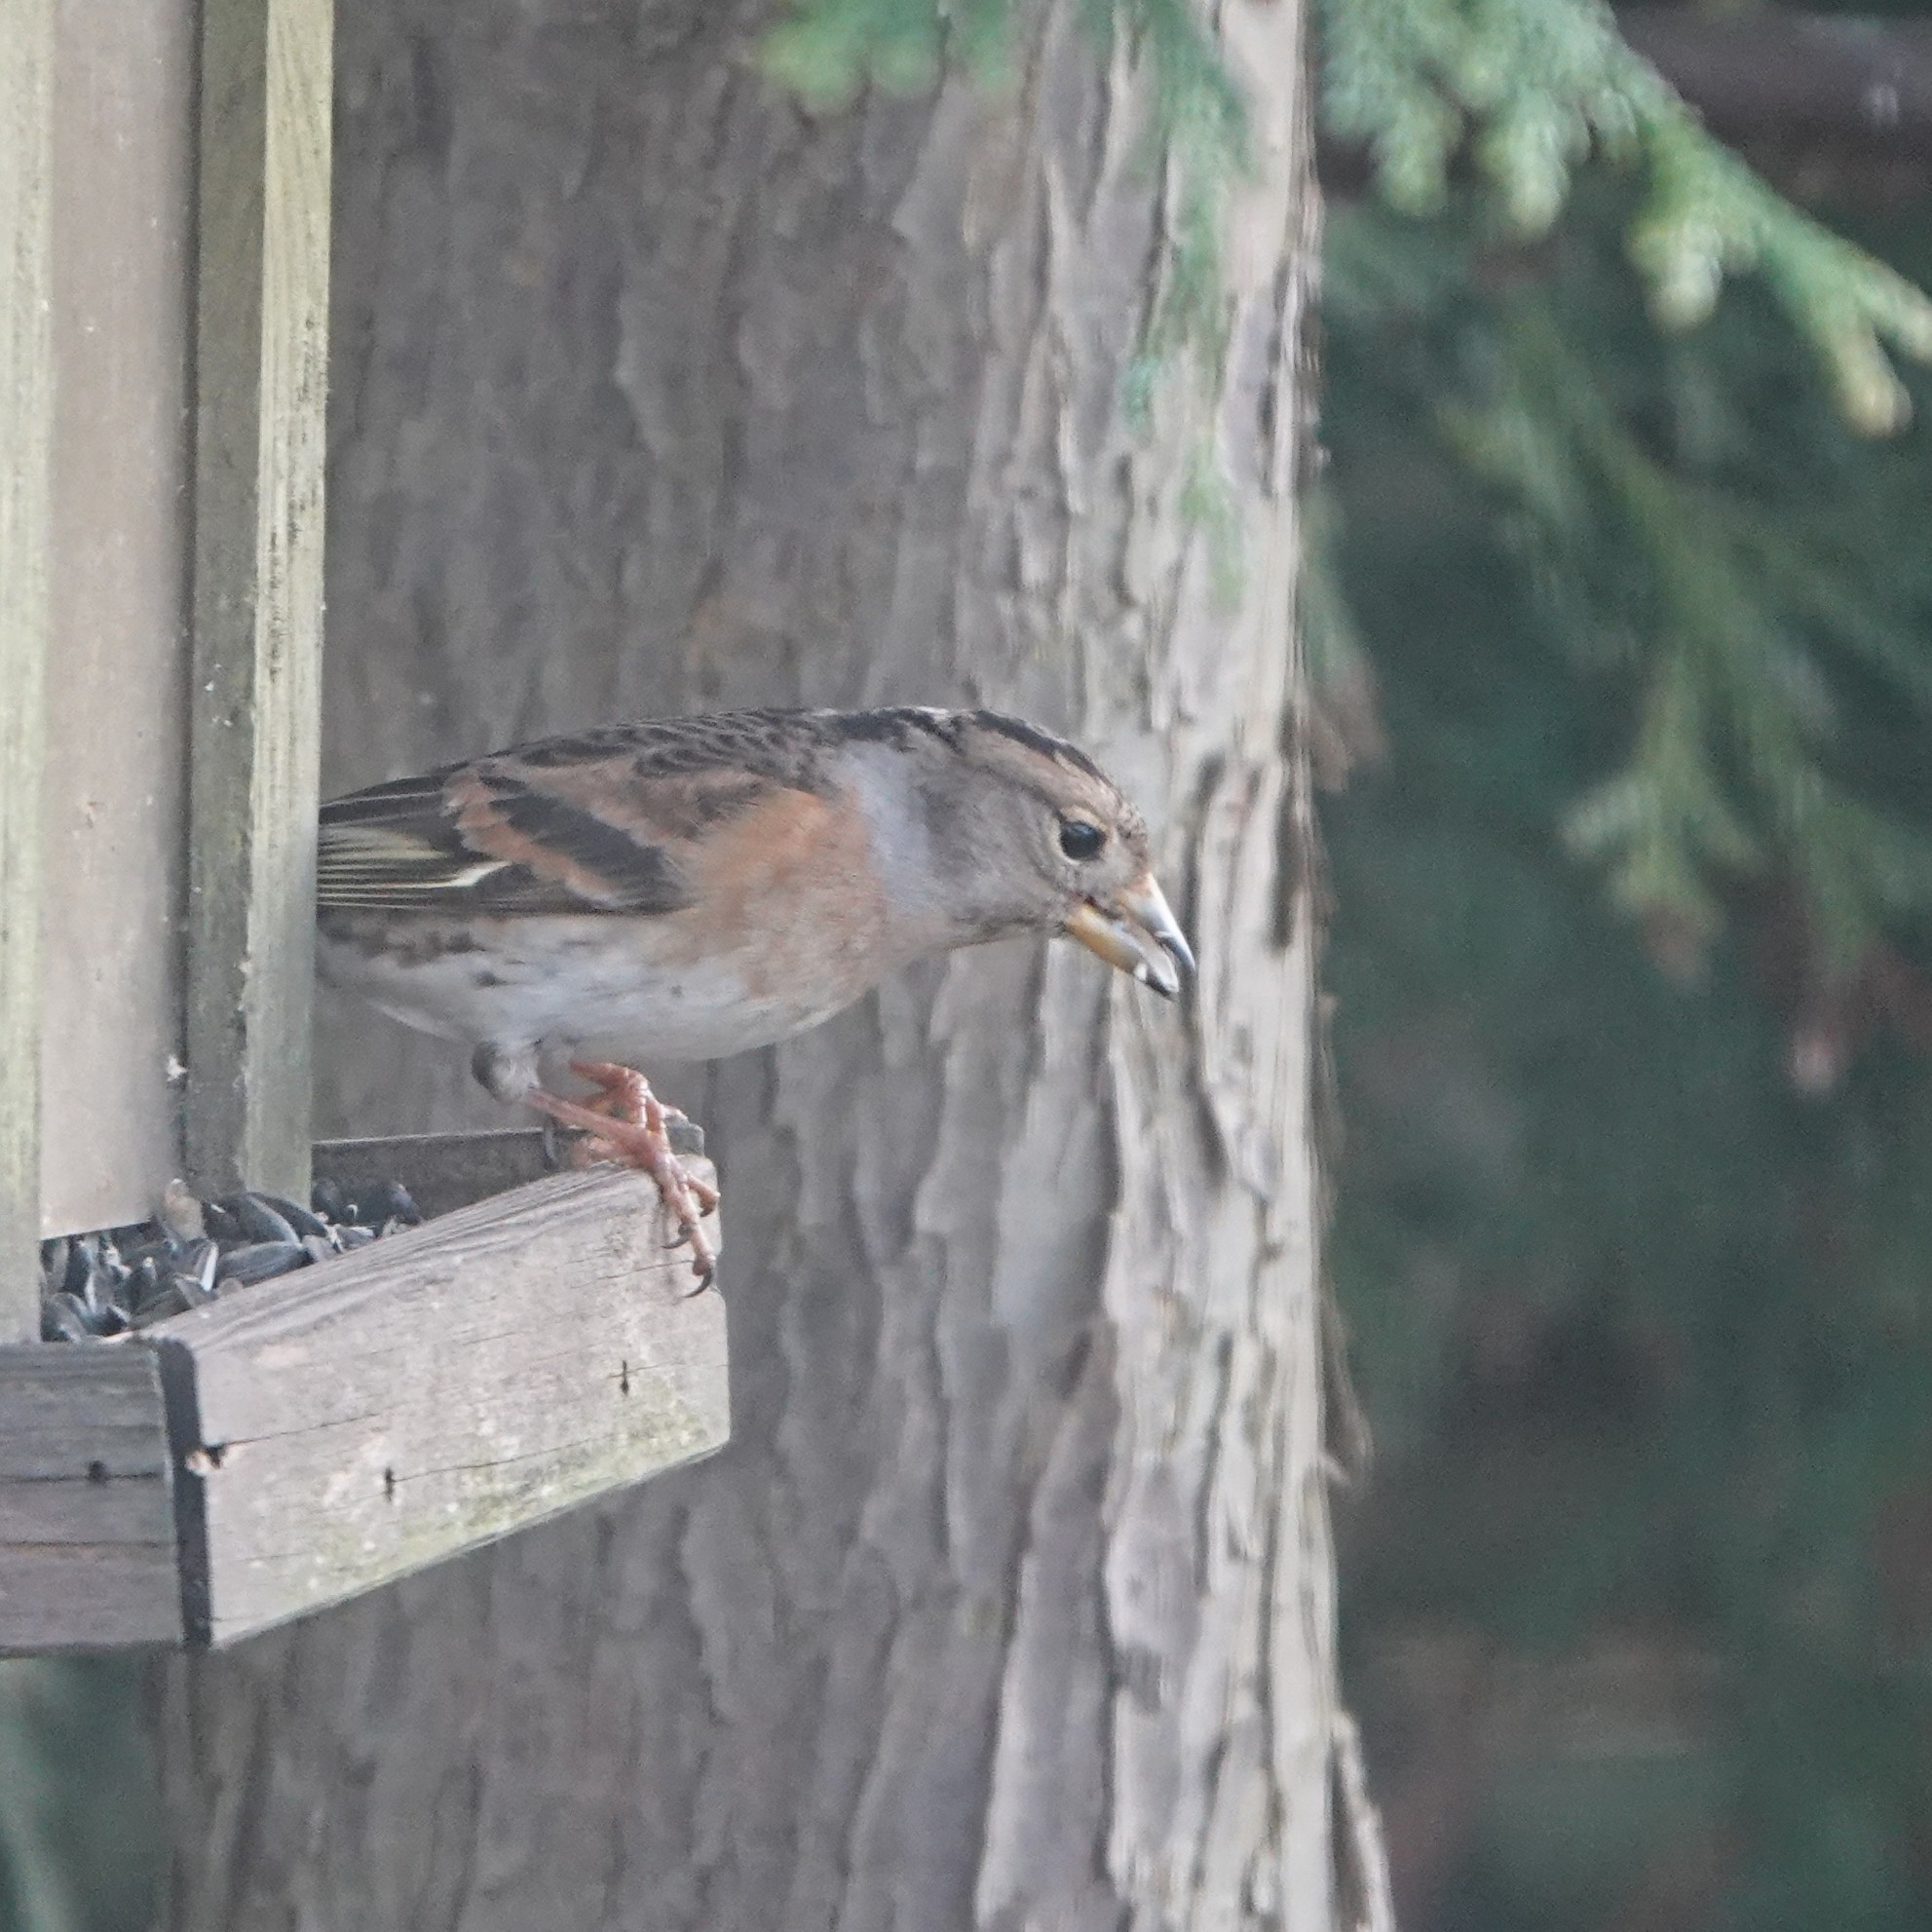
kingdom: Animalia
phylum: Chordata
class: Aves
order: Passeriformes
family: Fringillidae
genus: Fringilla
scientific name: Fringilla montifringilla
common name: Brambling
